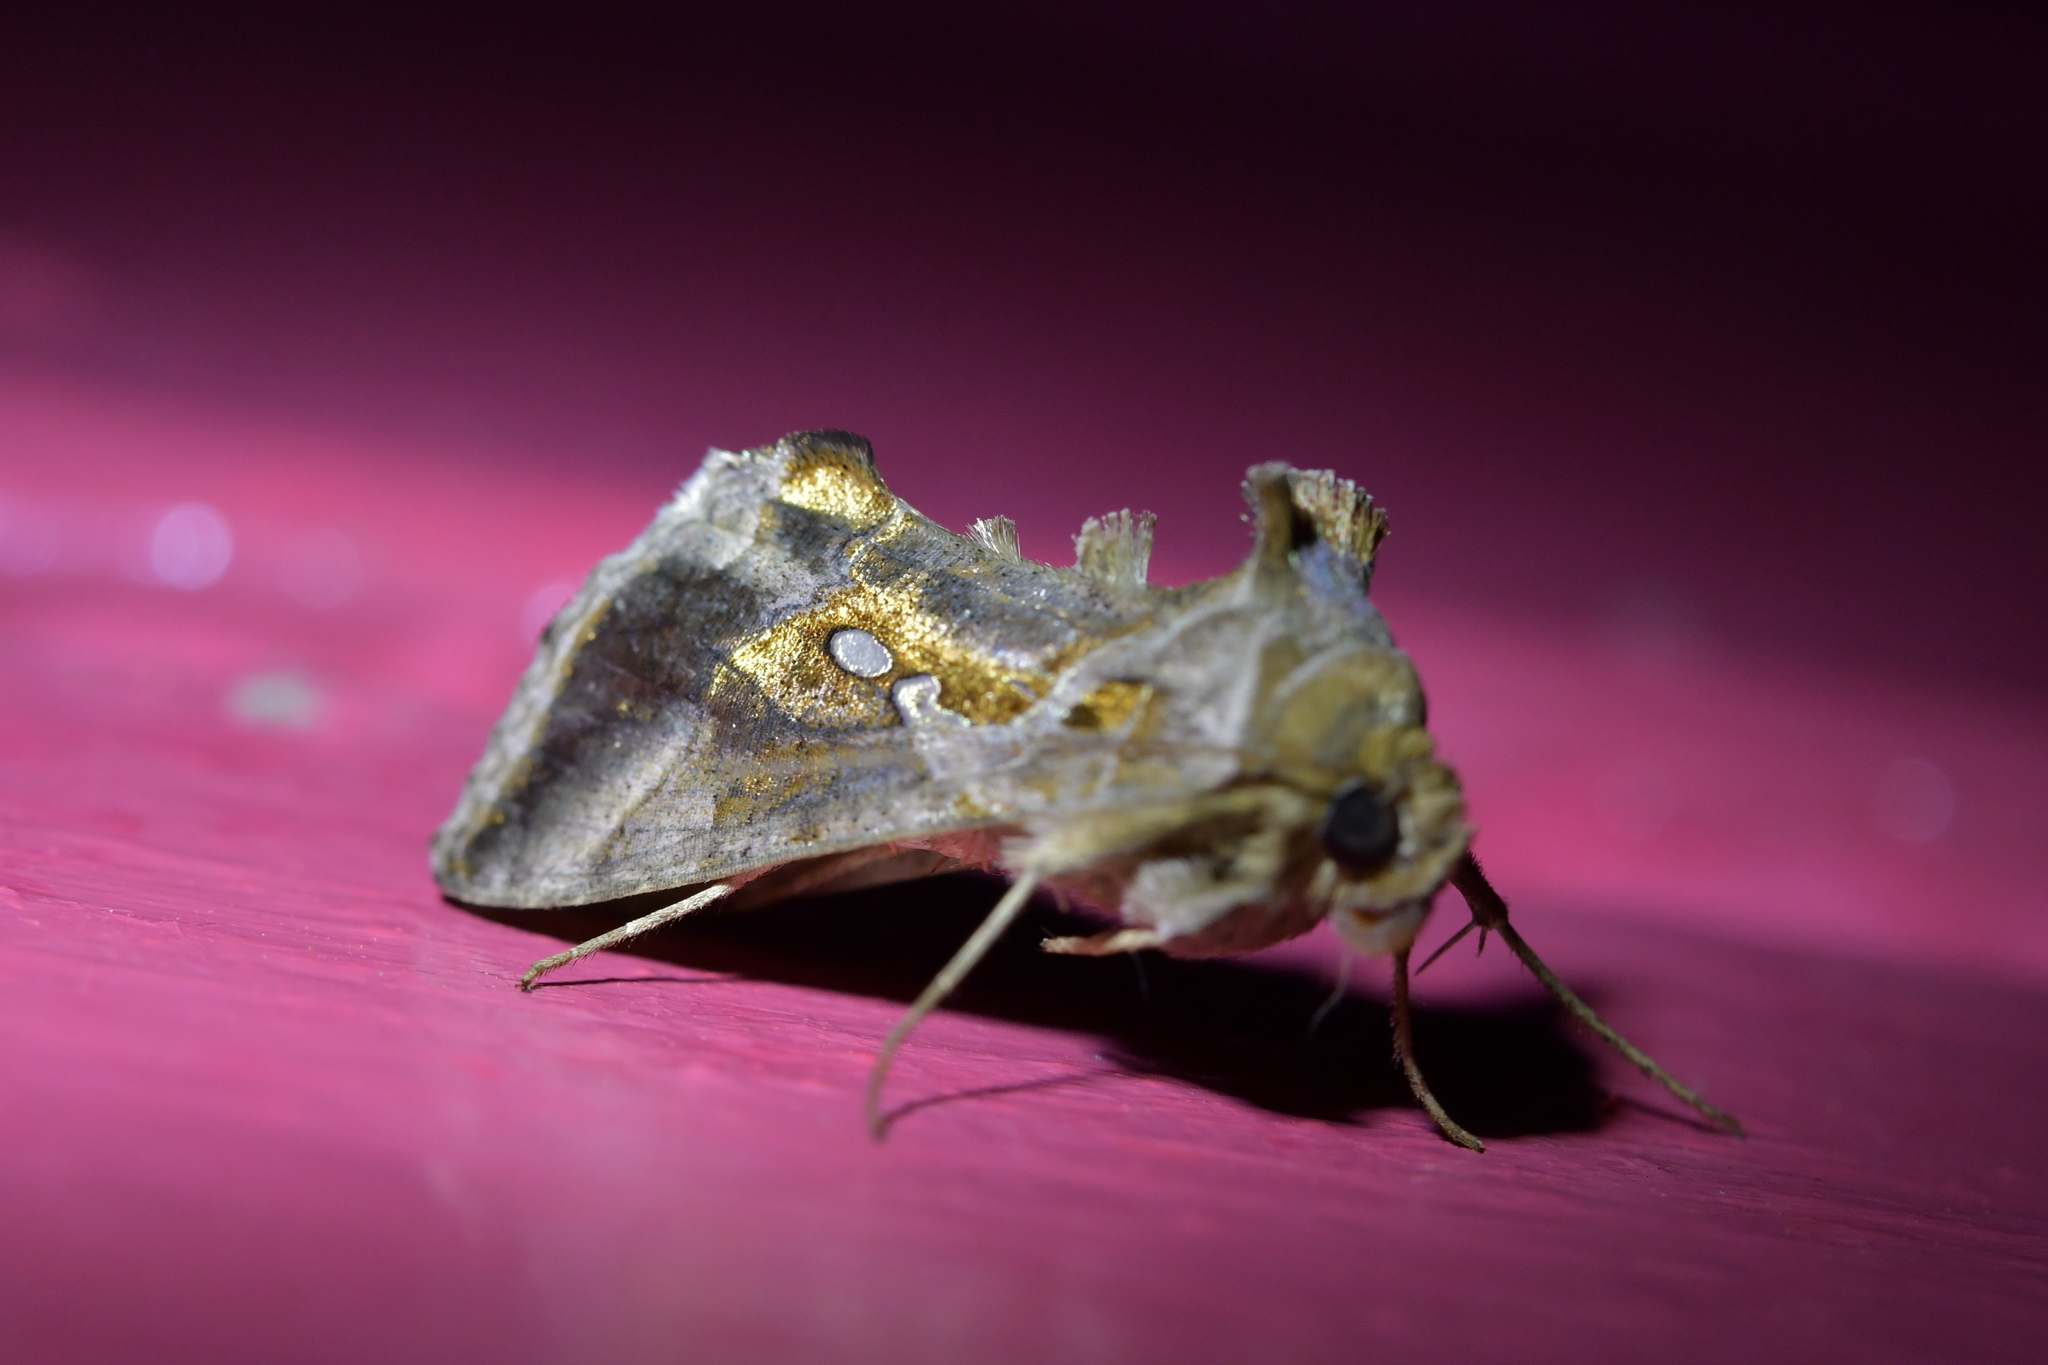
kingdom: Animalia
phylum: Arthropoda
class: Insecta
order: Lepidoptera
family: Noctuidae
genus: Chrysodeixis
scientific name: Chrysodeixis eriosoma
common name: Green garden looper
